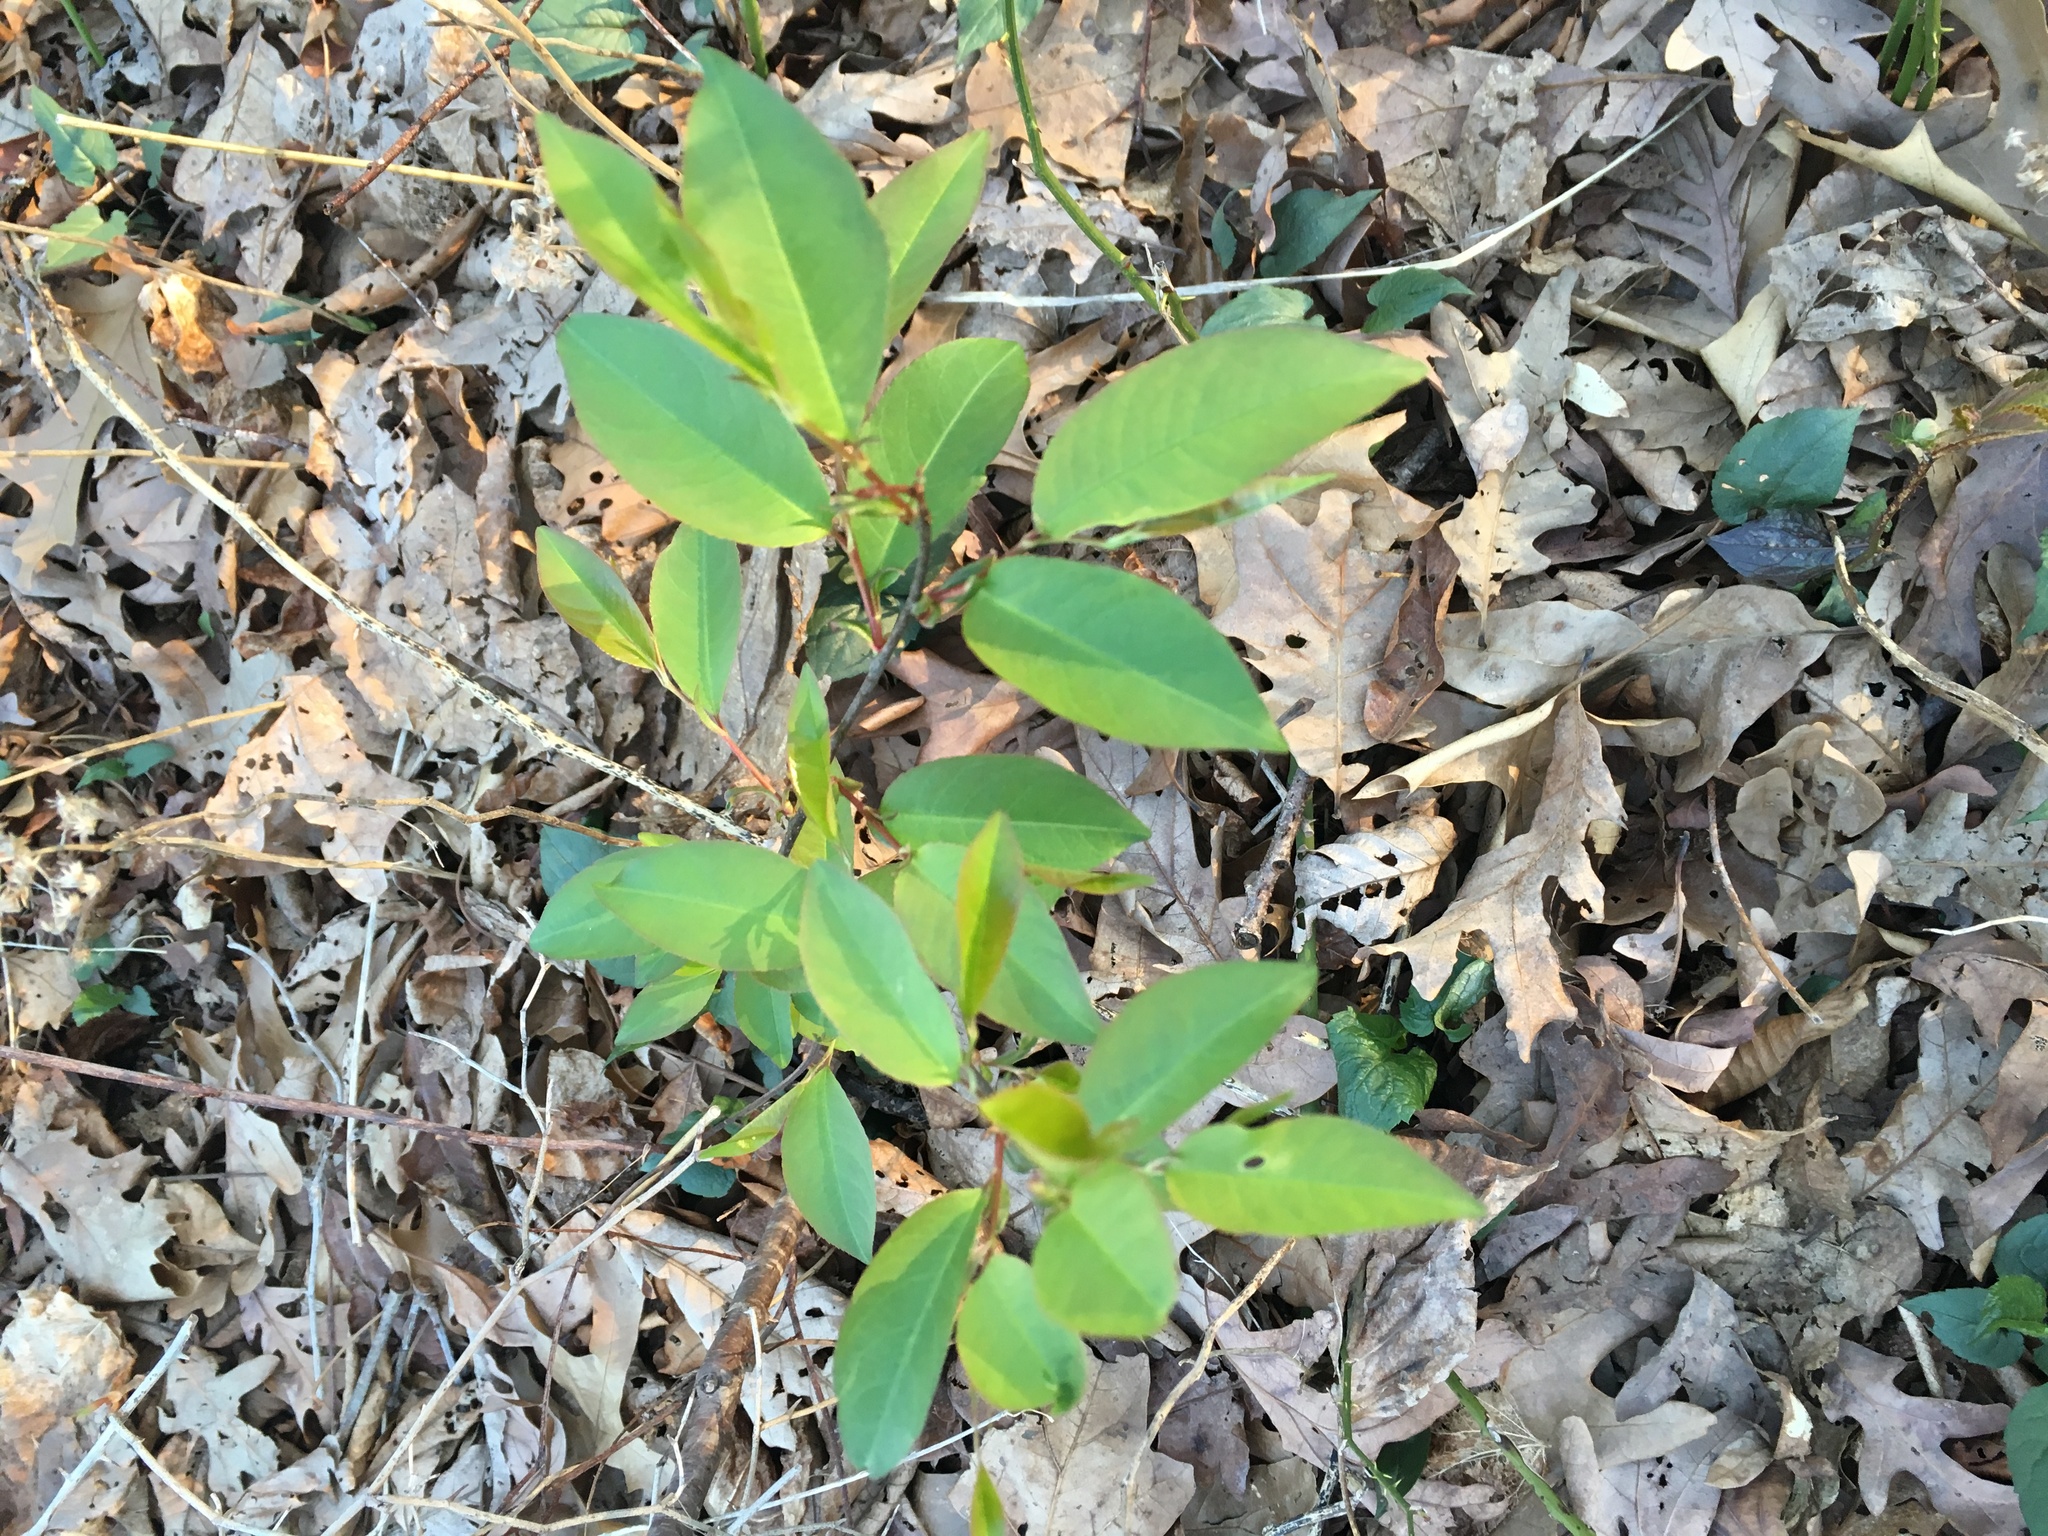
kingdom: Plantae
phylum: Tracheophyta
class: Magnoliopsida
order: Rosales
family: Rosaceae
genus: Prunus
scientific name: Prunus serotina
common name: Black cherry
